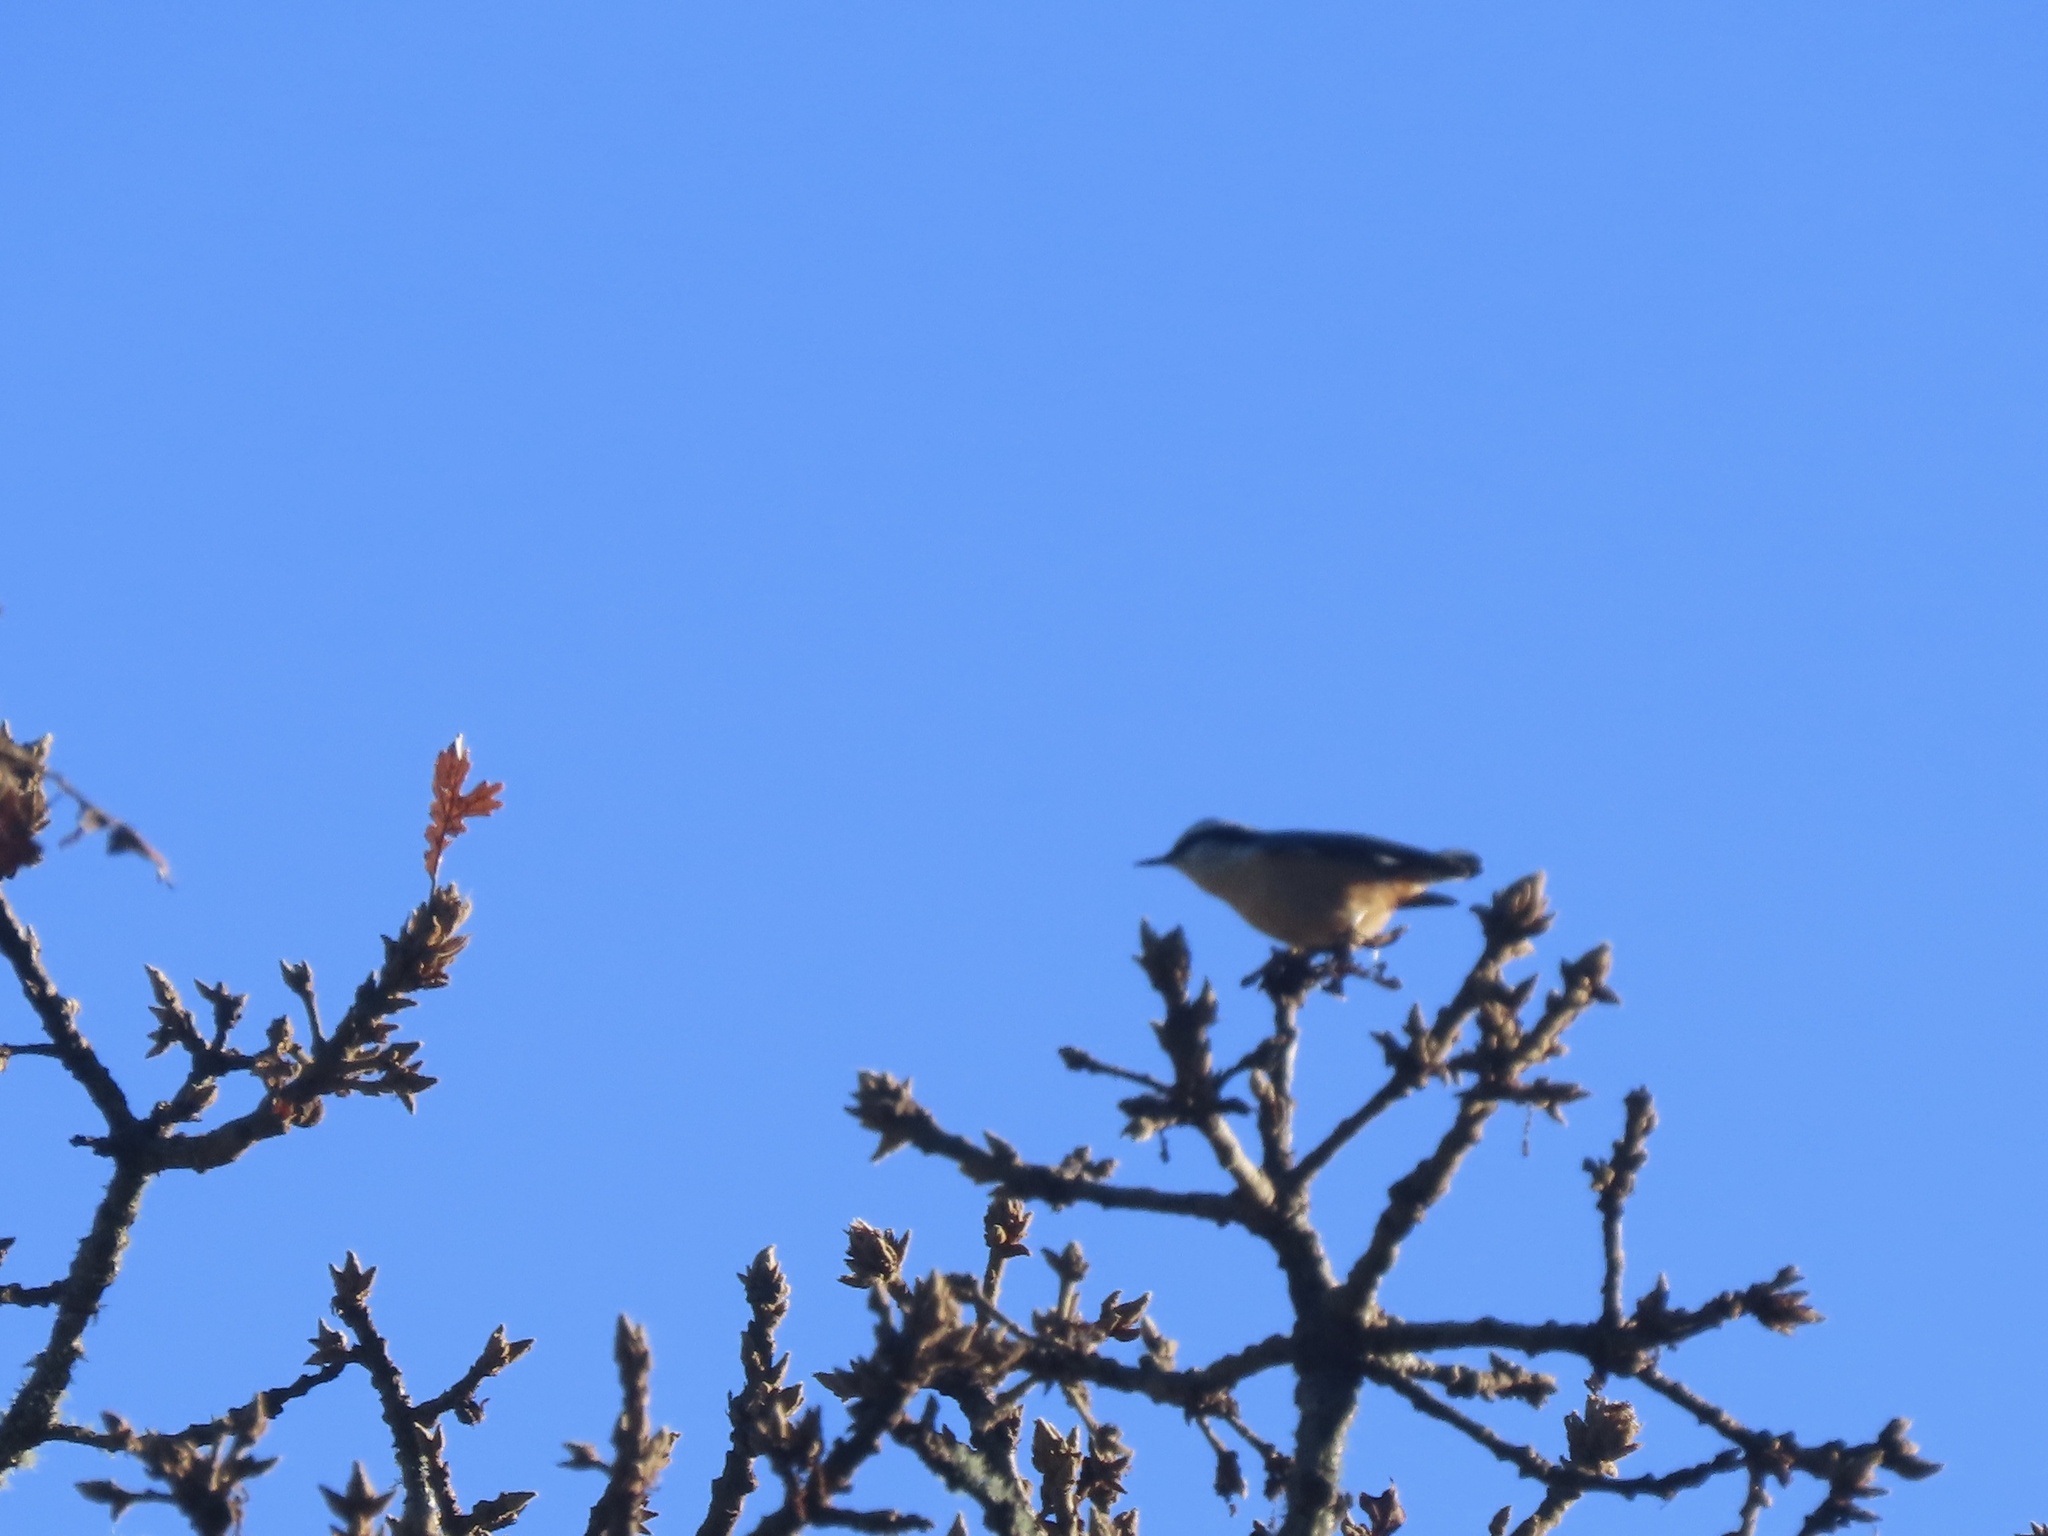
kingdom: Animalia
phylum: Chordata
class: Aves
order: Passeriformes
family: Sittidae
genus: Sitta
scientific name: Sitta canadensis
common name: Red-breasted nuthatch
